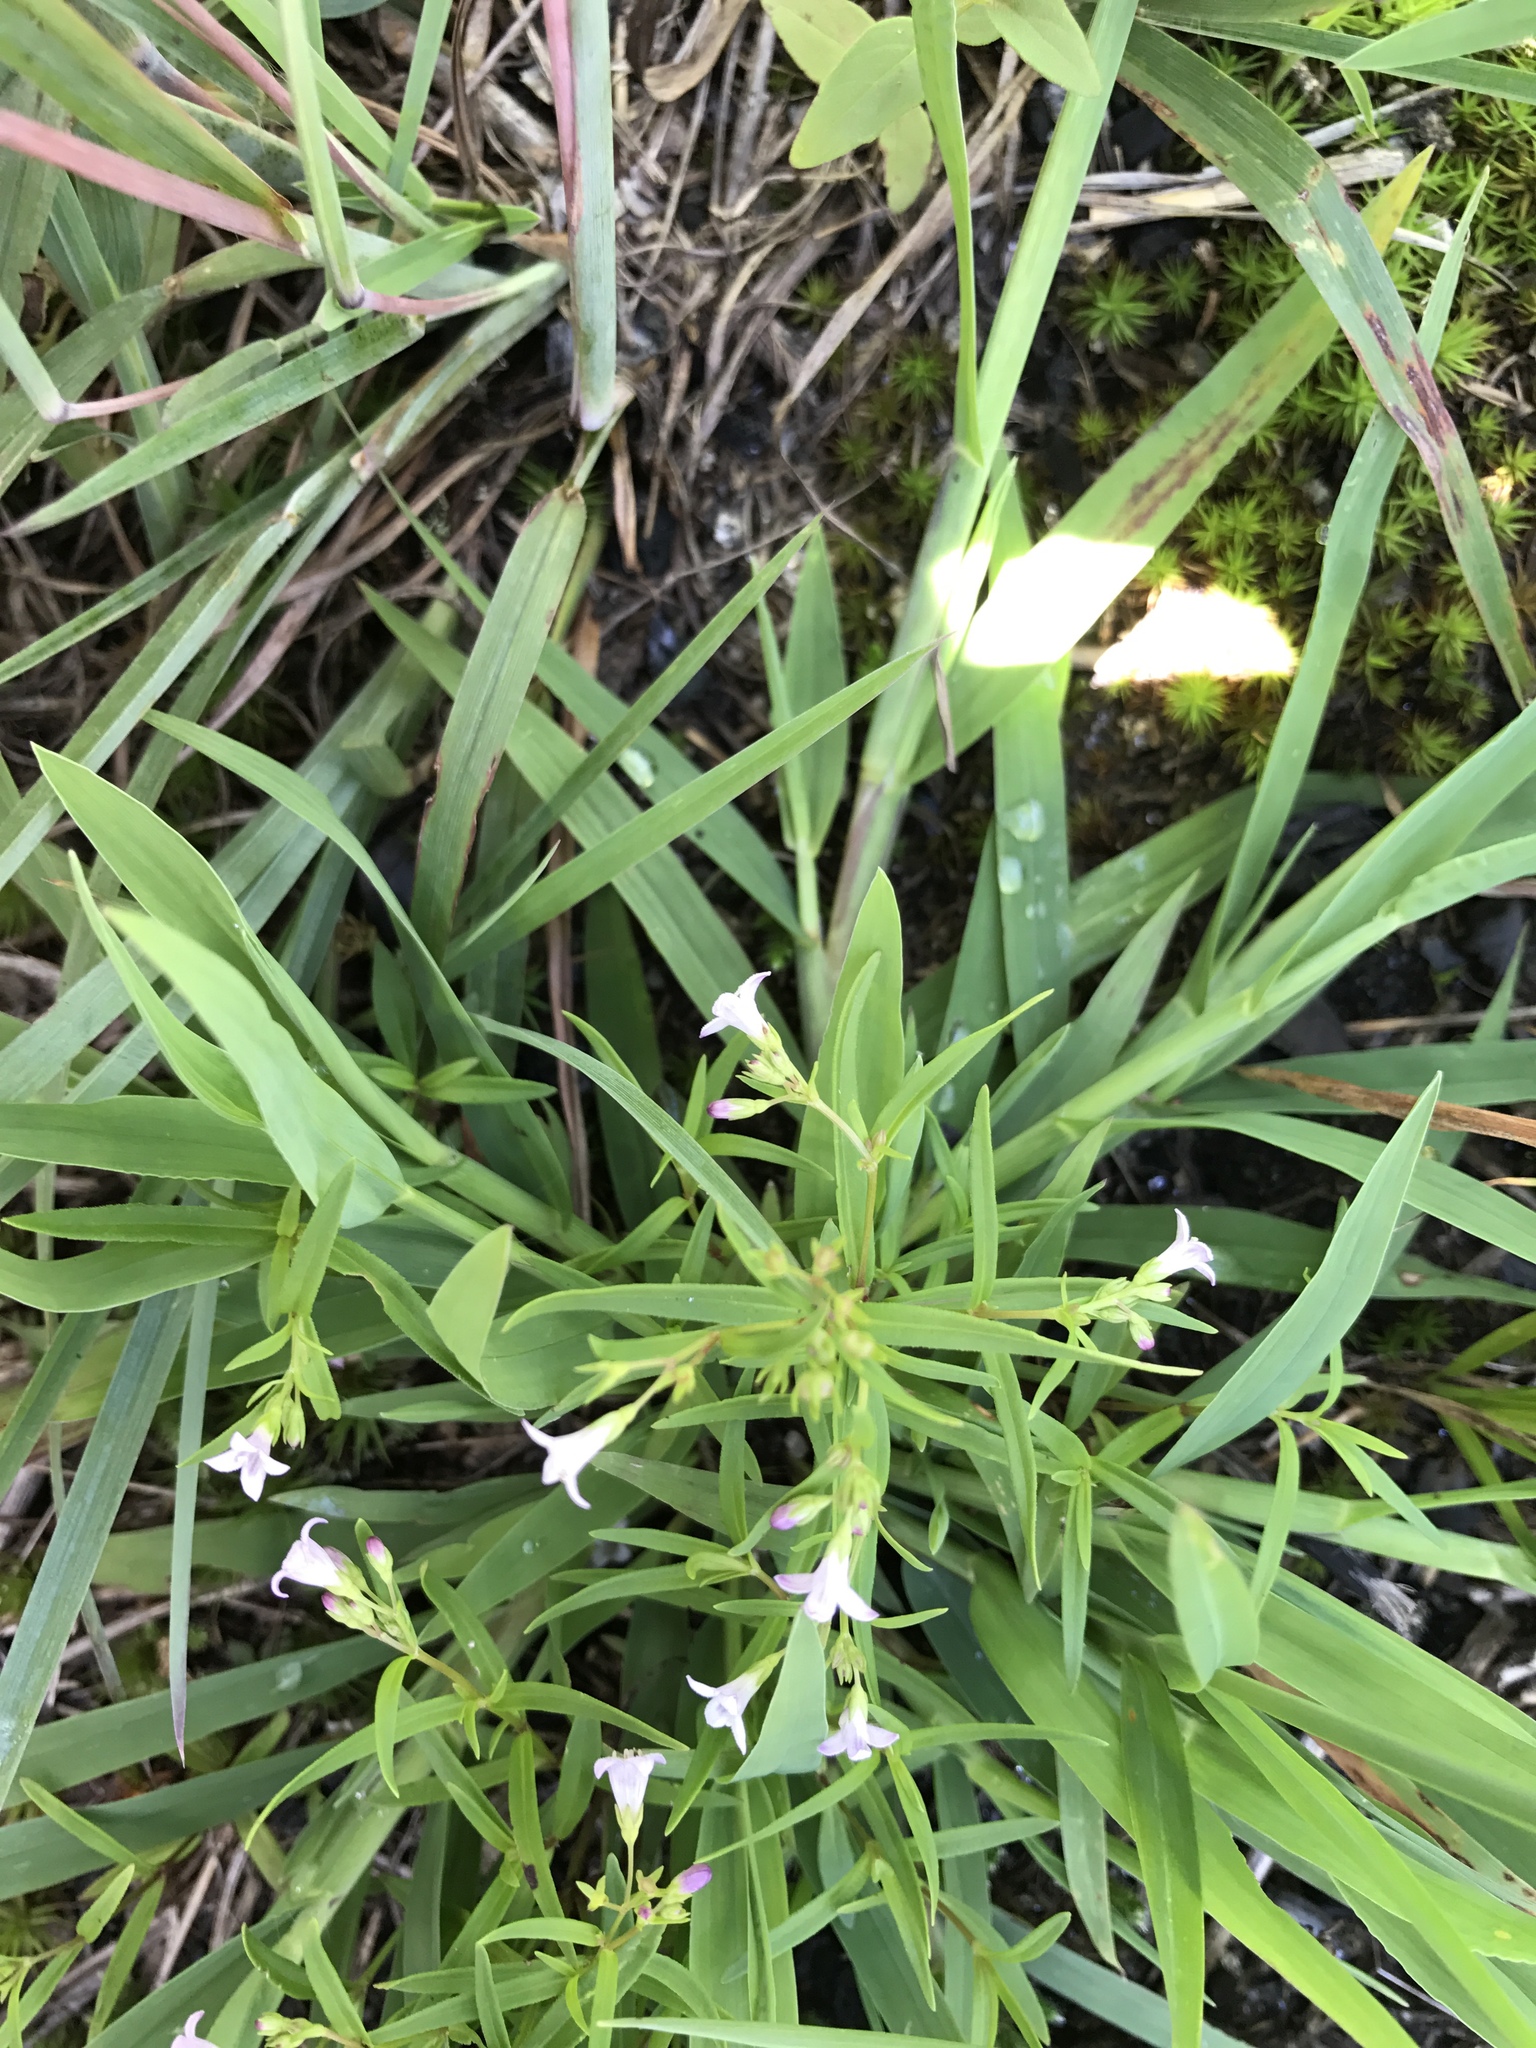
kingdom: Plantae
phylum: Tracheophyta
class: Magnoliopsida
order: Gentianales
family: Rubiaceae
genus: Houstonia
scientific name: Houstonia longifolia
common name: Long-leaved bluets
